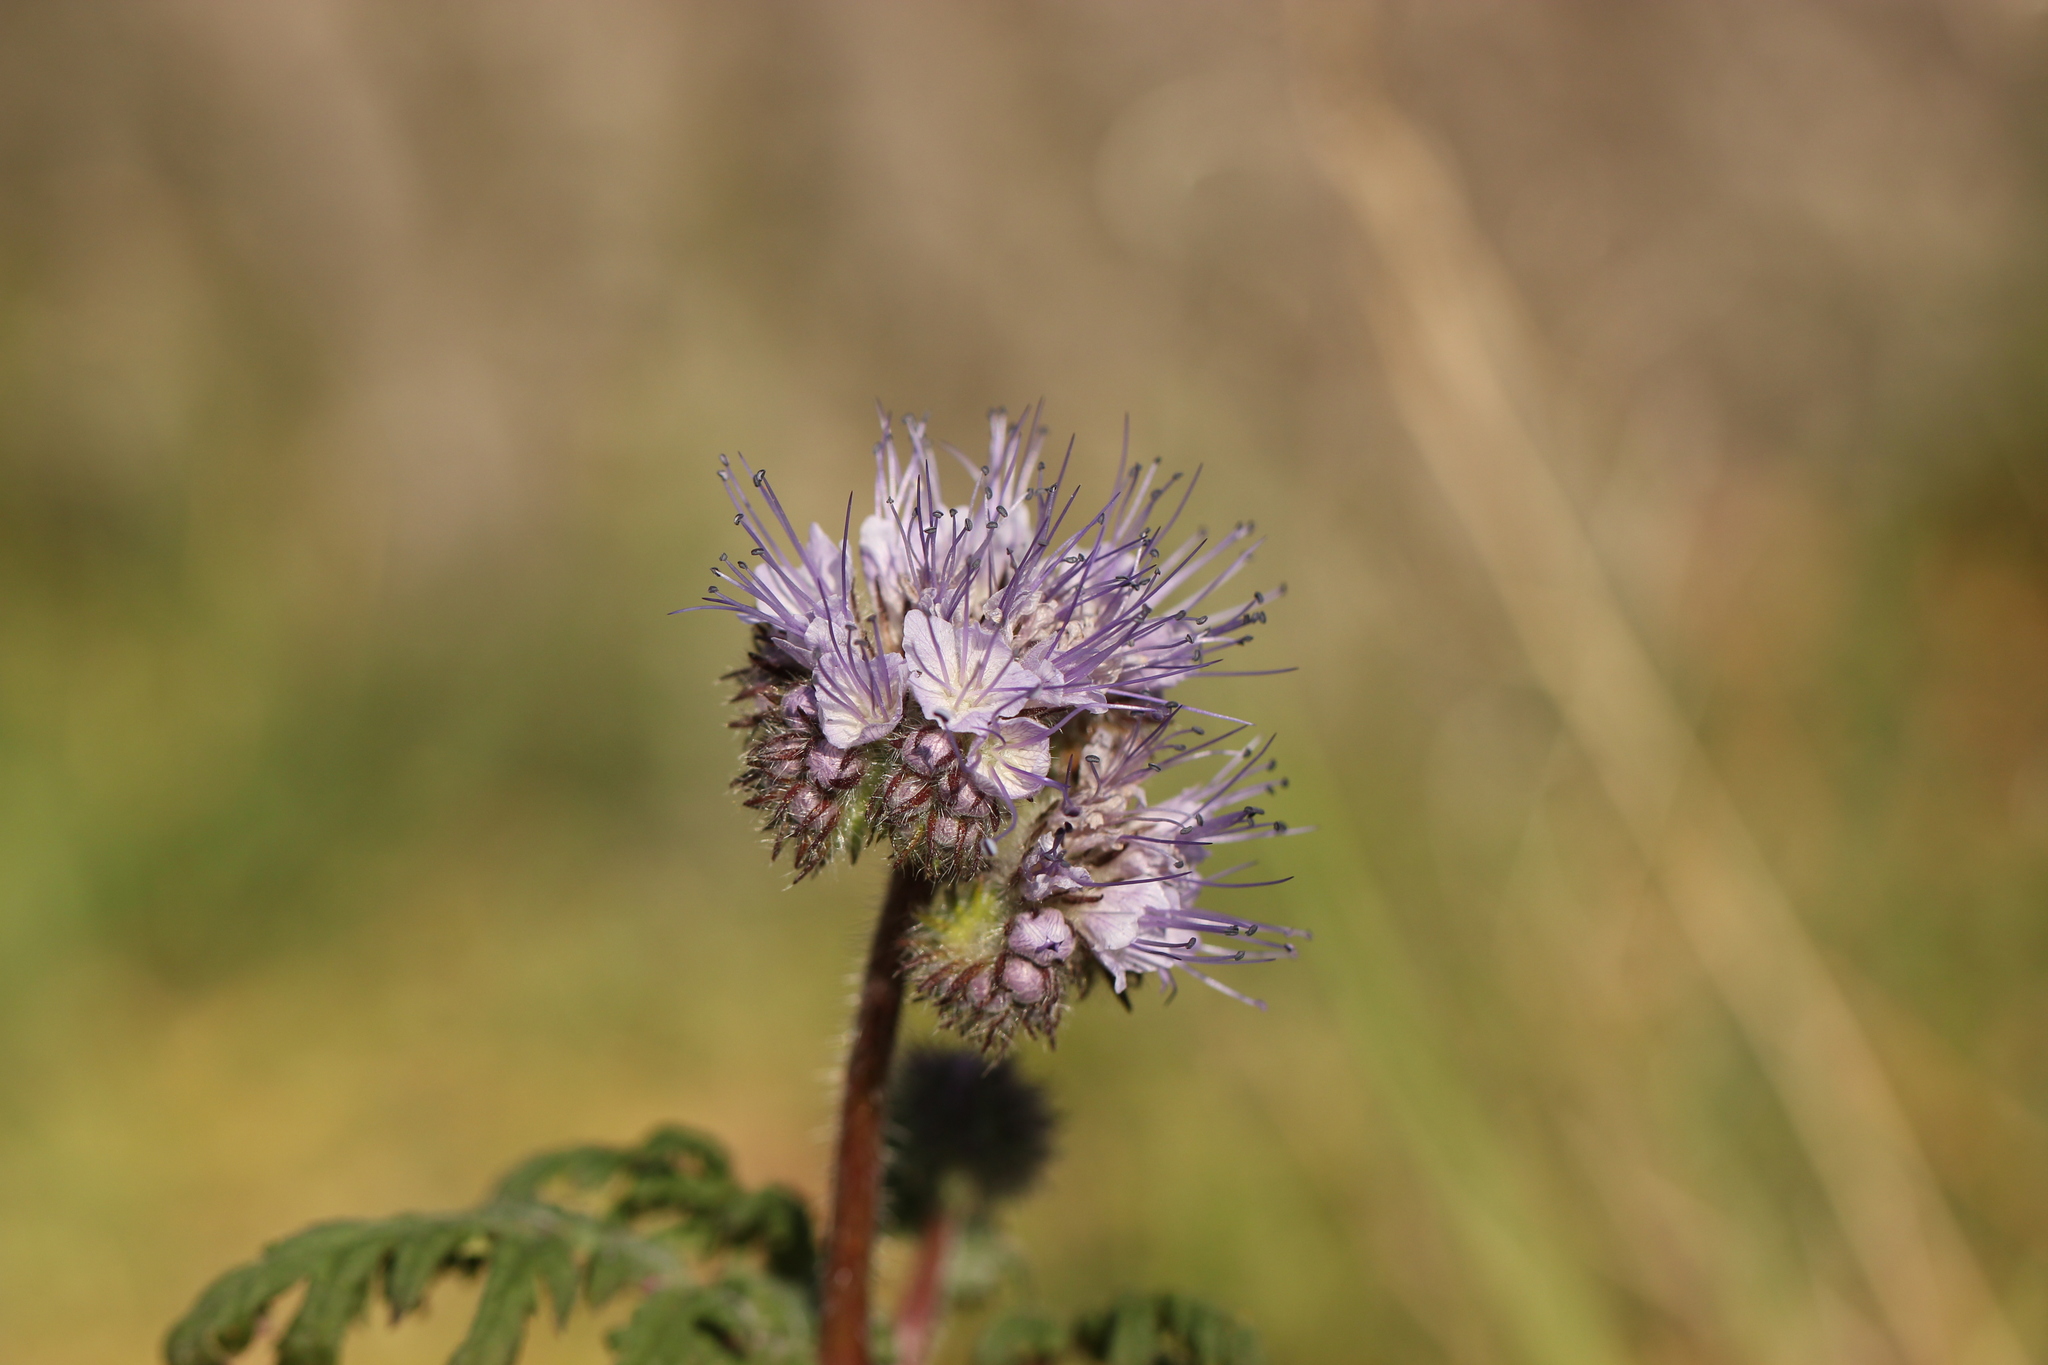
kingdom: Plantae
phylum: Tracheophyta
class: Magnoliopsida
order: Boraginales
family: Hydrophyllaceae
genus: Phacelia
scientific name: Phacelia tanacetifolia
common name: Phacelia
